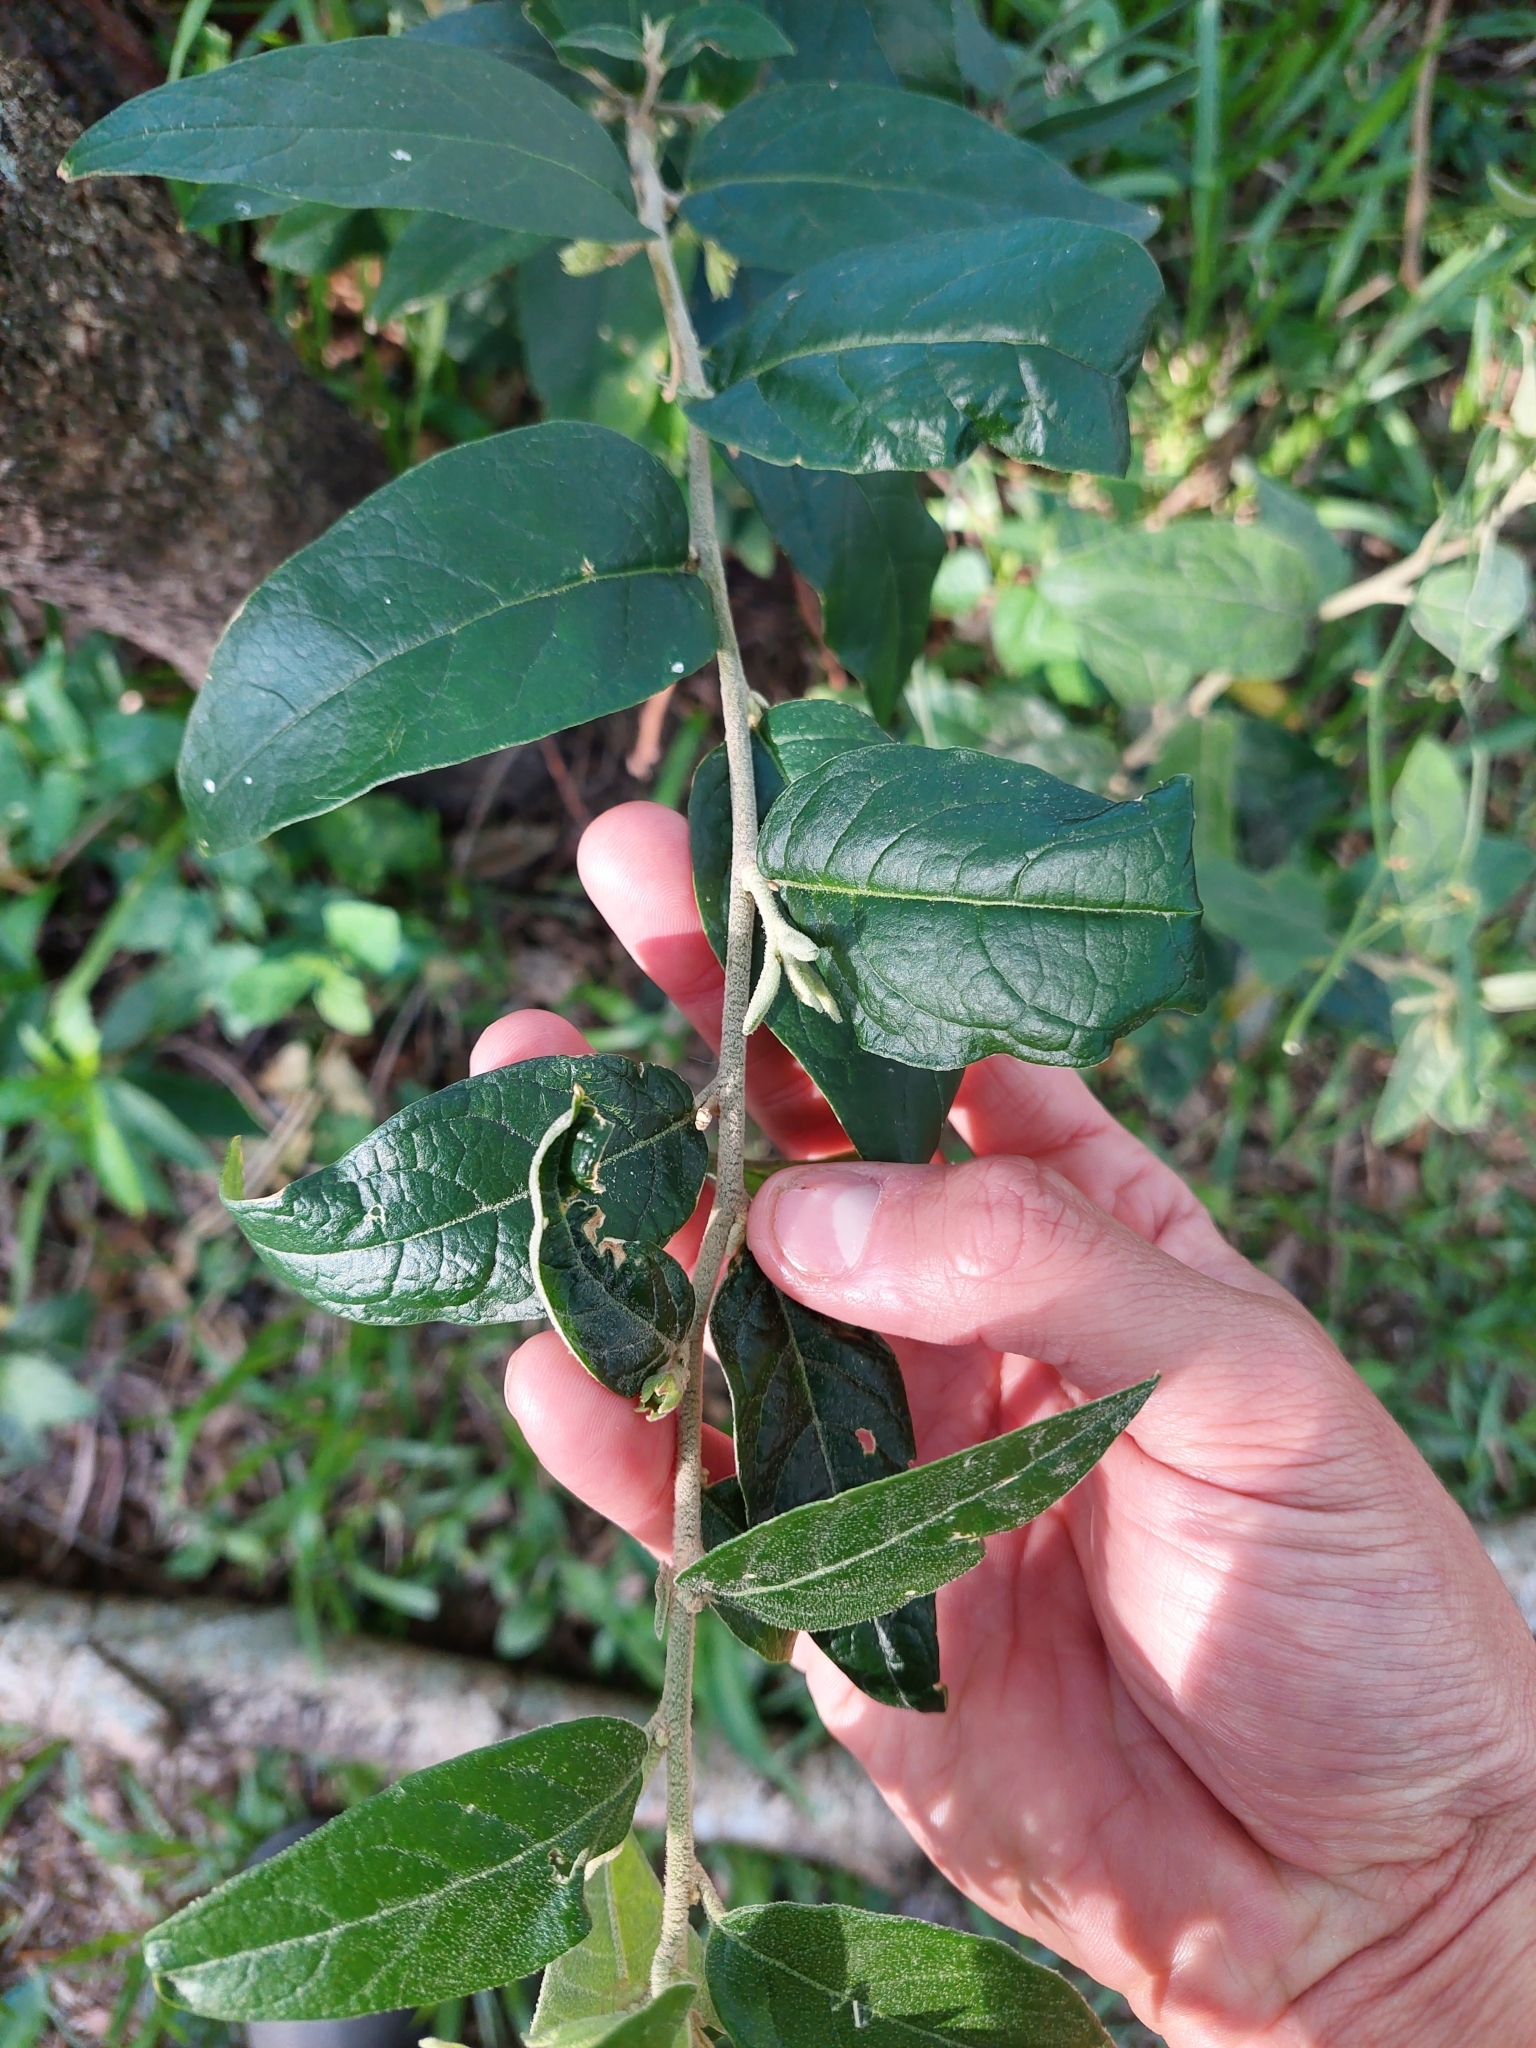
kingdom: Plantae
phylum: Tracheophyta
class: Magnoliopsida
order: Solanales
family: Solanaceae
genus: Cestrum
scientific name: Cestrum strigillatum
